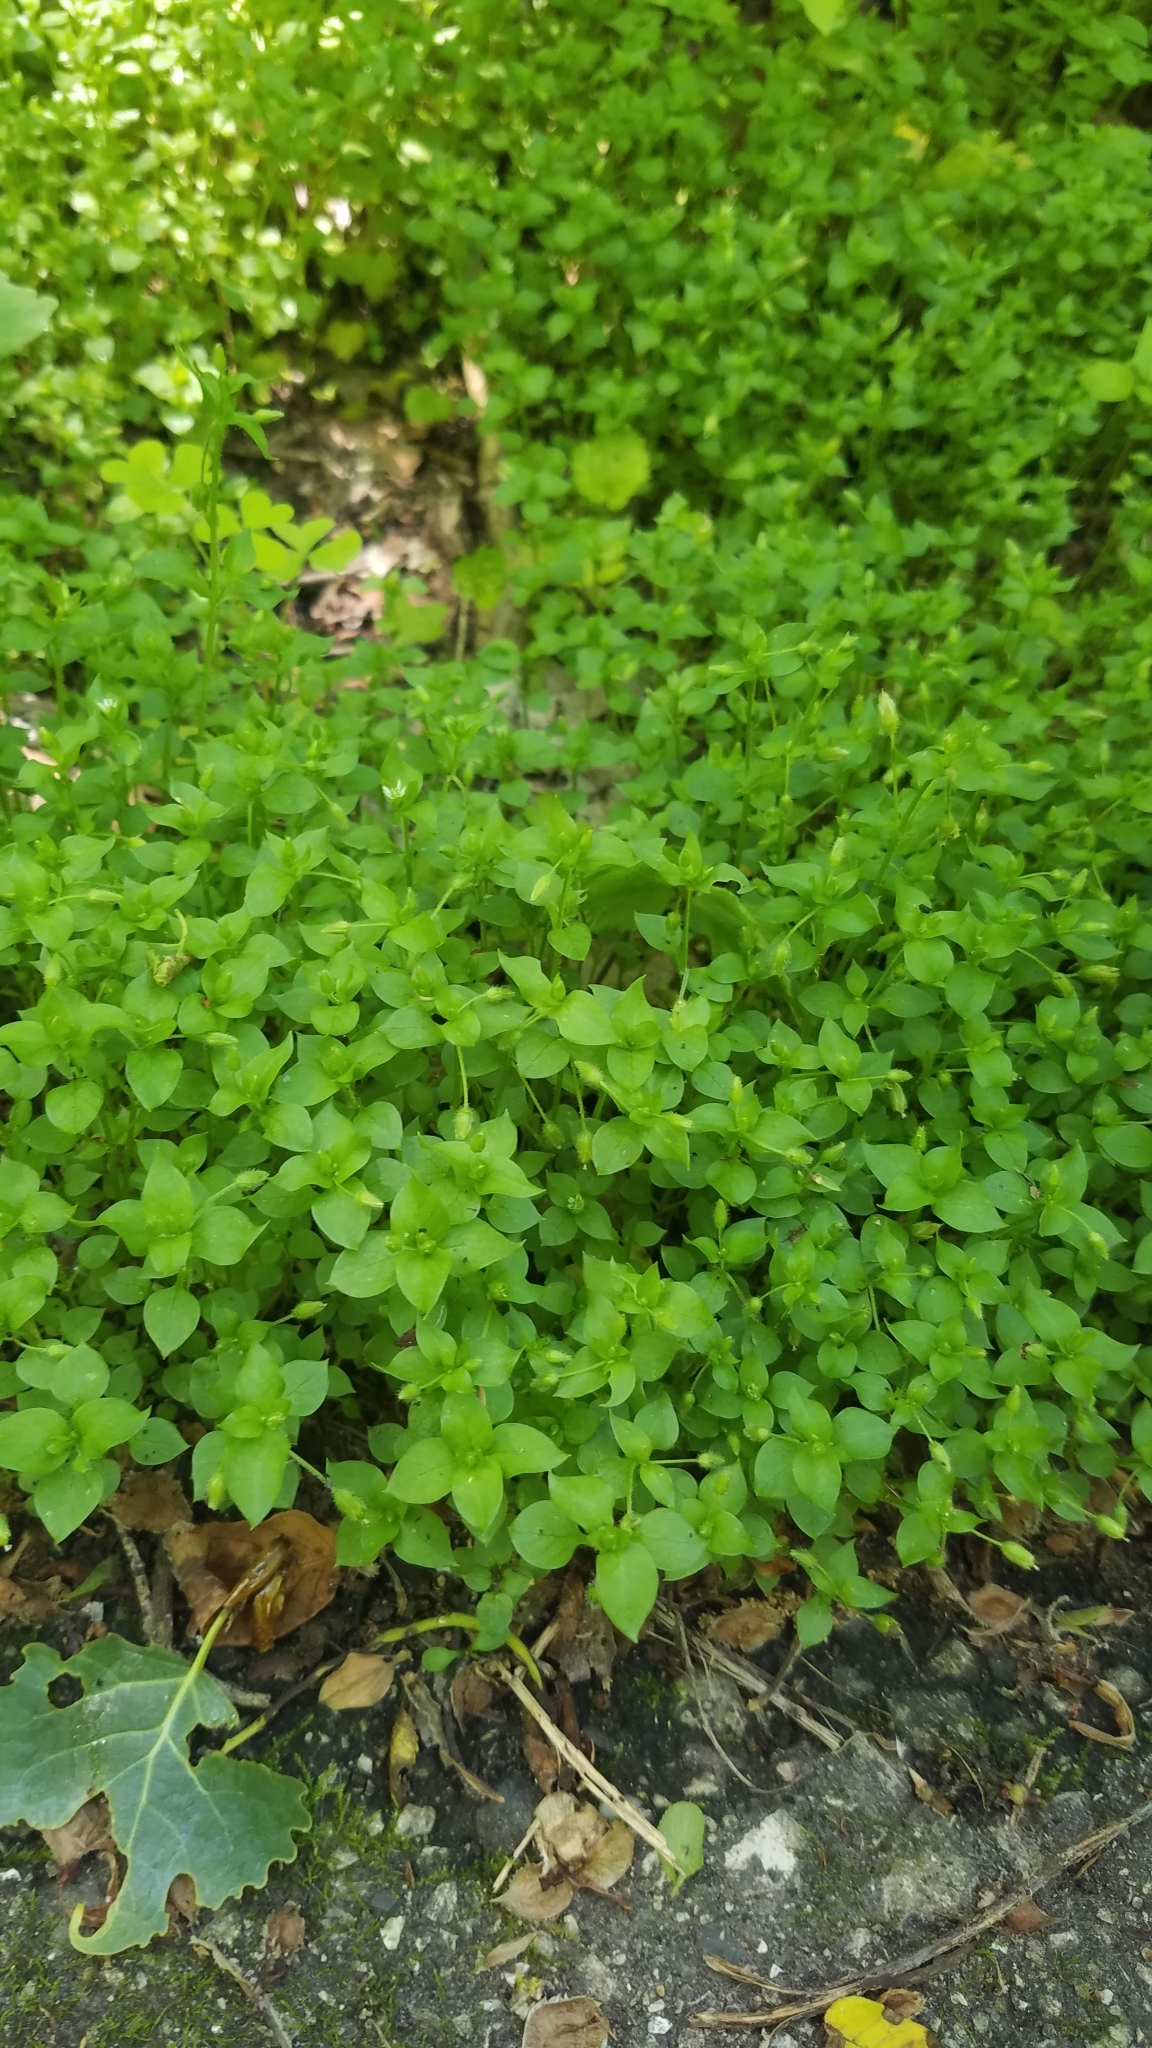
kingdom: Plantae
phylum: Tracheophyta
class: Magnoliopsida
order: Caryophyllales
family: Caryophyllaceae
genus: Stellaria
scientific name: Stellaria media
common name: Common chickweed
